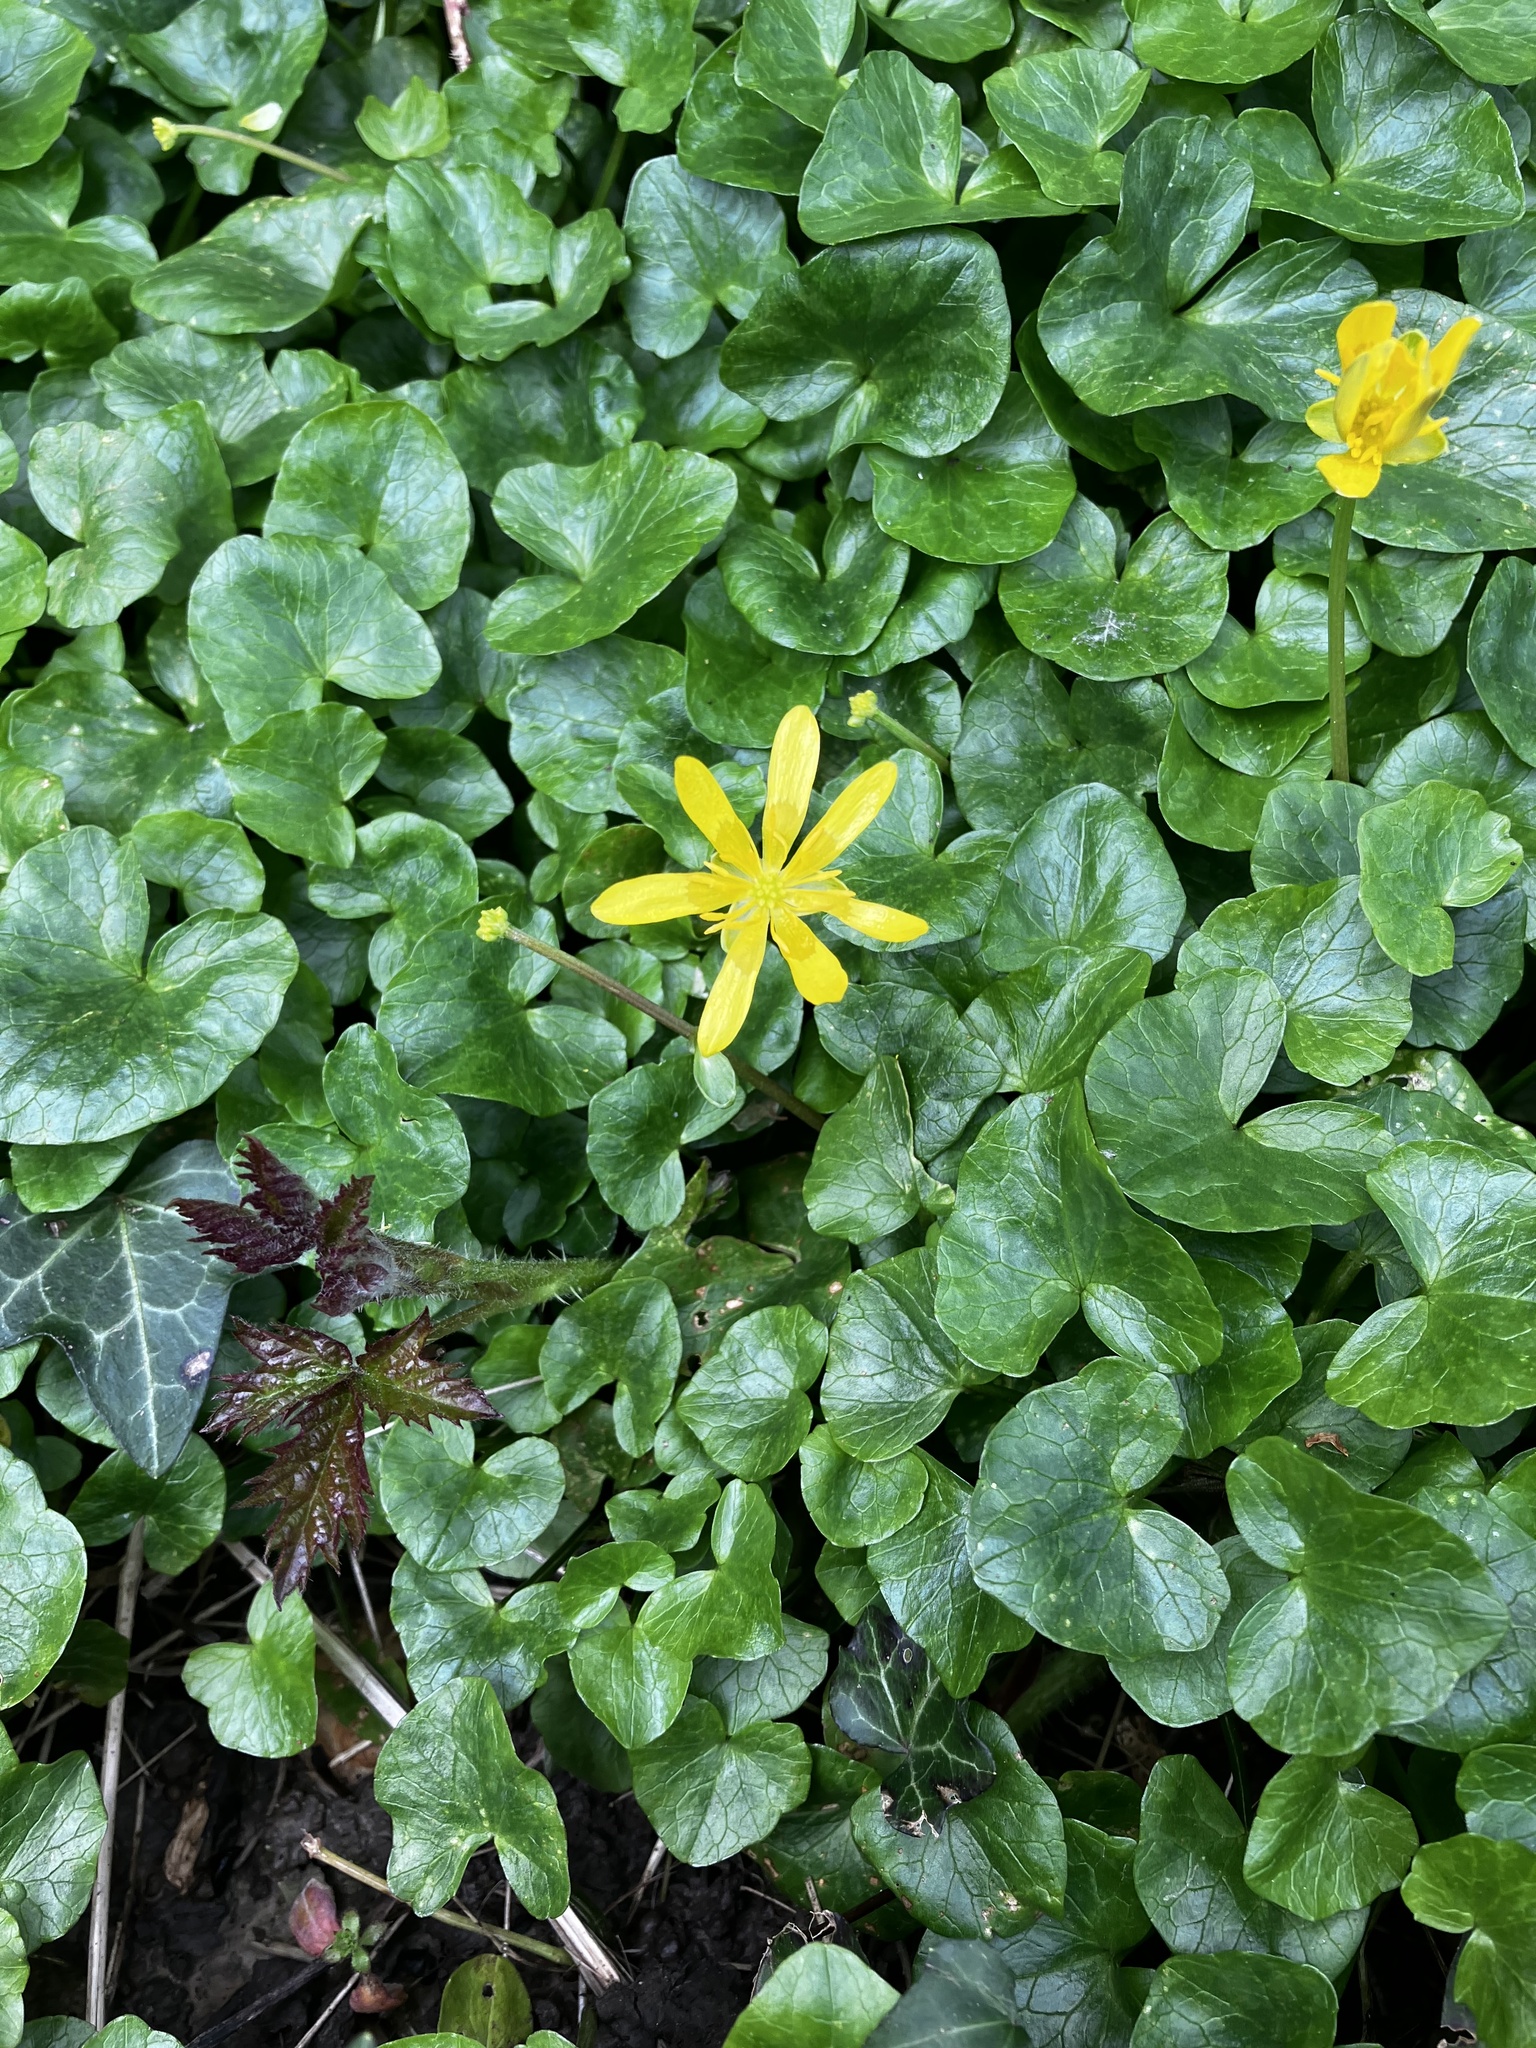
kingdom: Plantae
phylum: Tracheophyta
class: Magnoliopsida
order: Ranunculales
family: Ranunculaceae
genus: Ficaria
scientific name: Ficaria verna
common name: Lesser celandine
